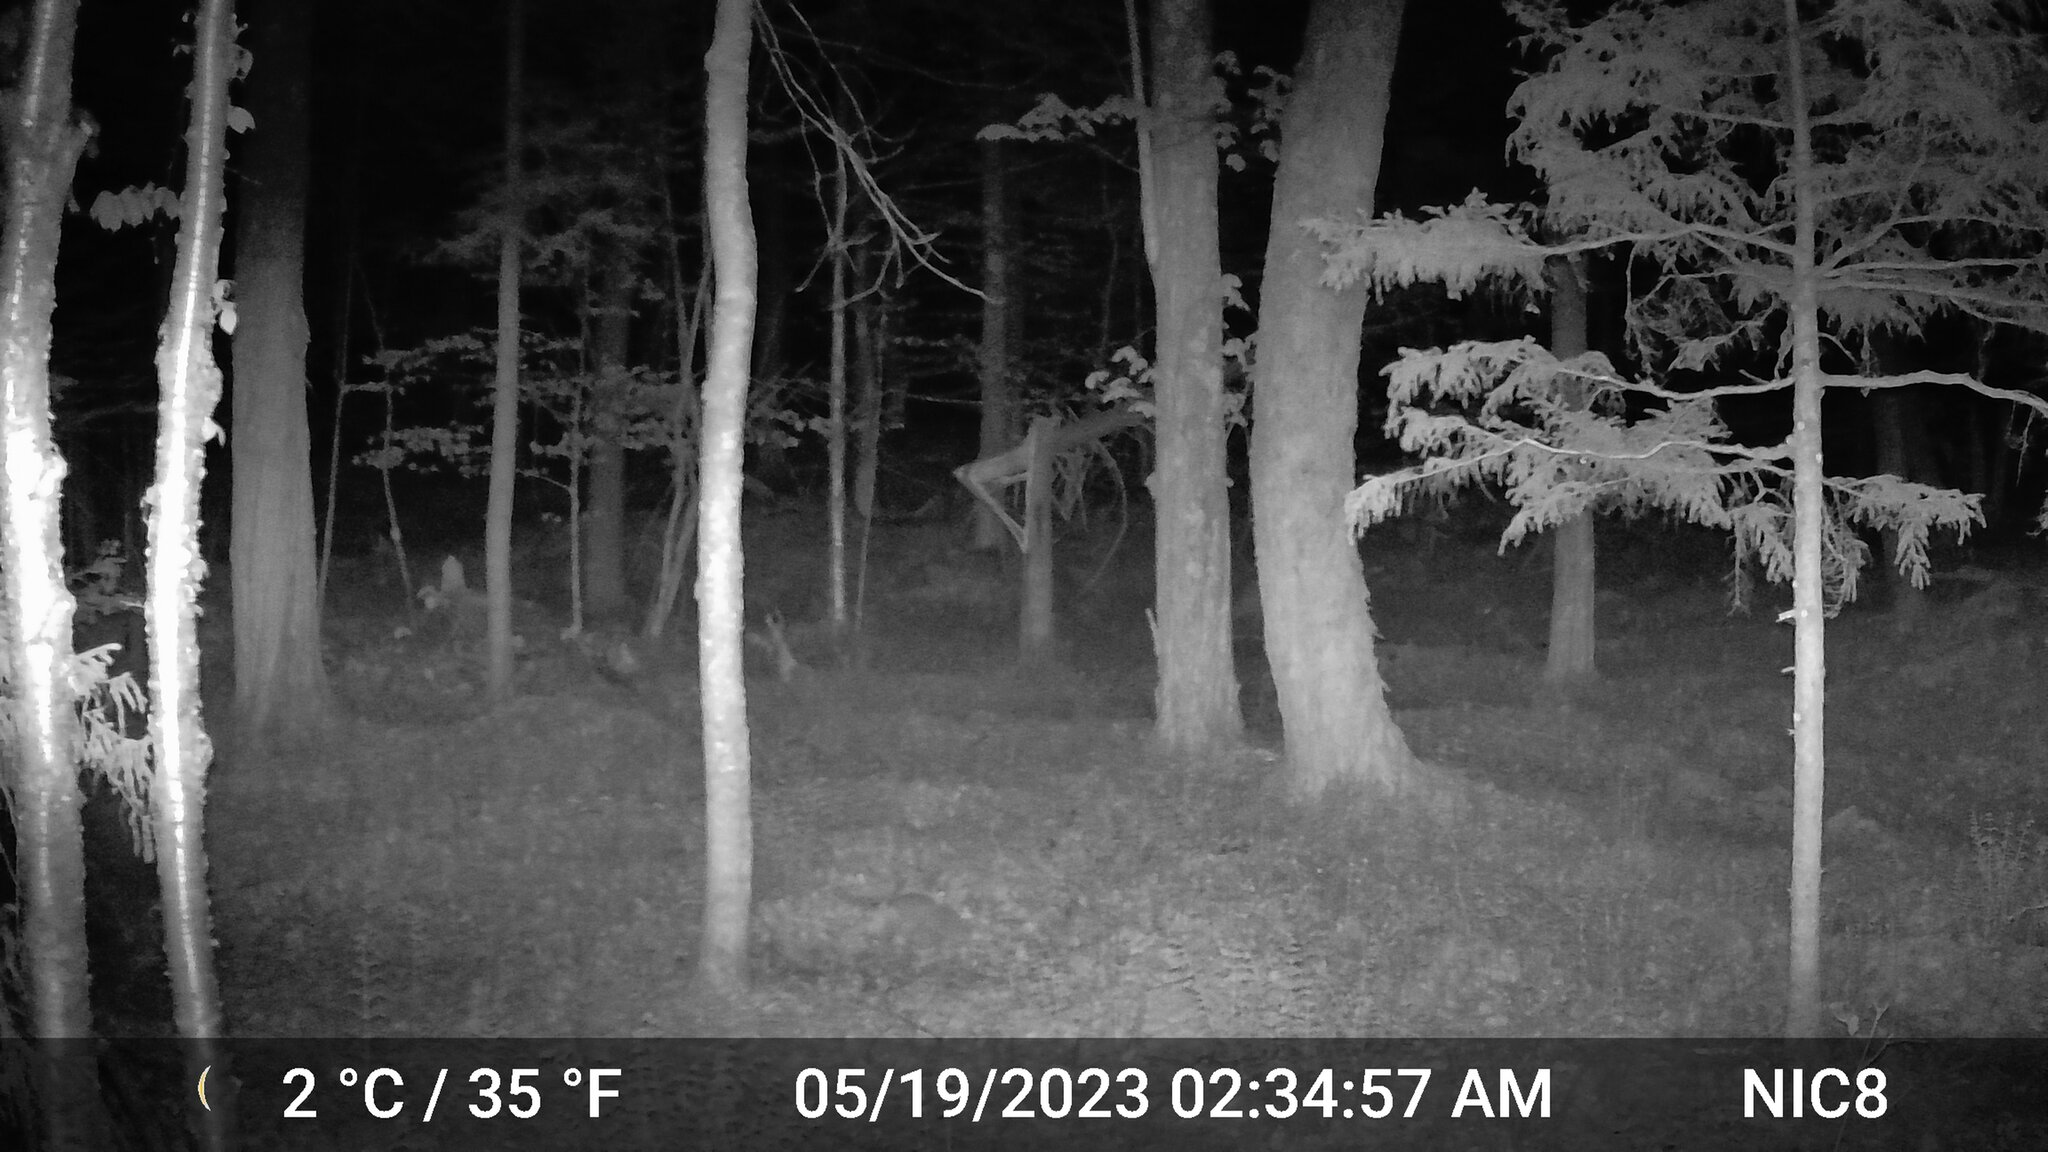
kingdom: Animalia
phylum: Chordata
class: Mammalia
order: Artiodactyla
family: Cervidae
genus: Odocoileus
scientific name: Odocoileus virginianus
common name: White-tailed deer
